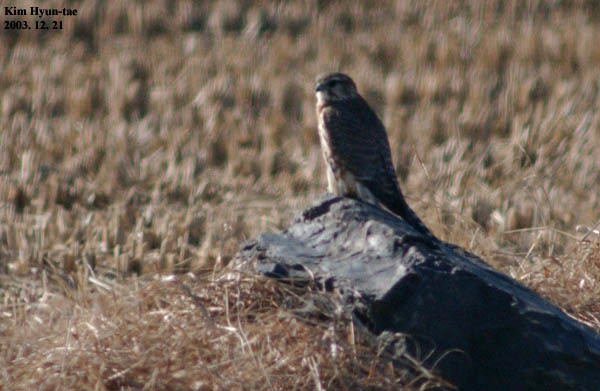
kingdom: Animalia
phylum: Chordata
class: Aves
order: Falconiformes
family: Falconidae
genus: Falco
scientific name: Falco columbarius
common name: Merlin
